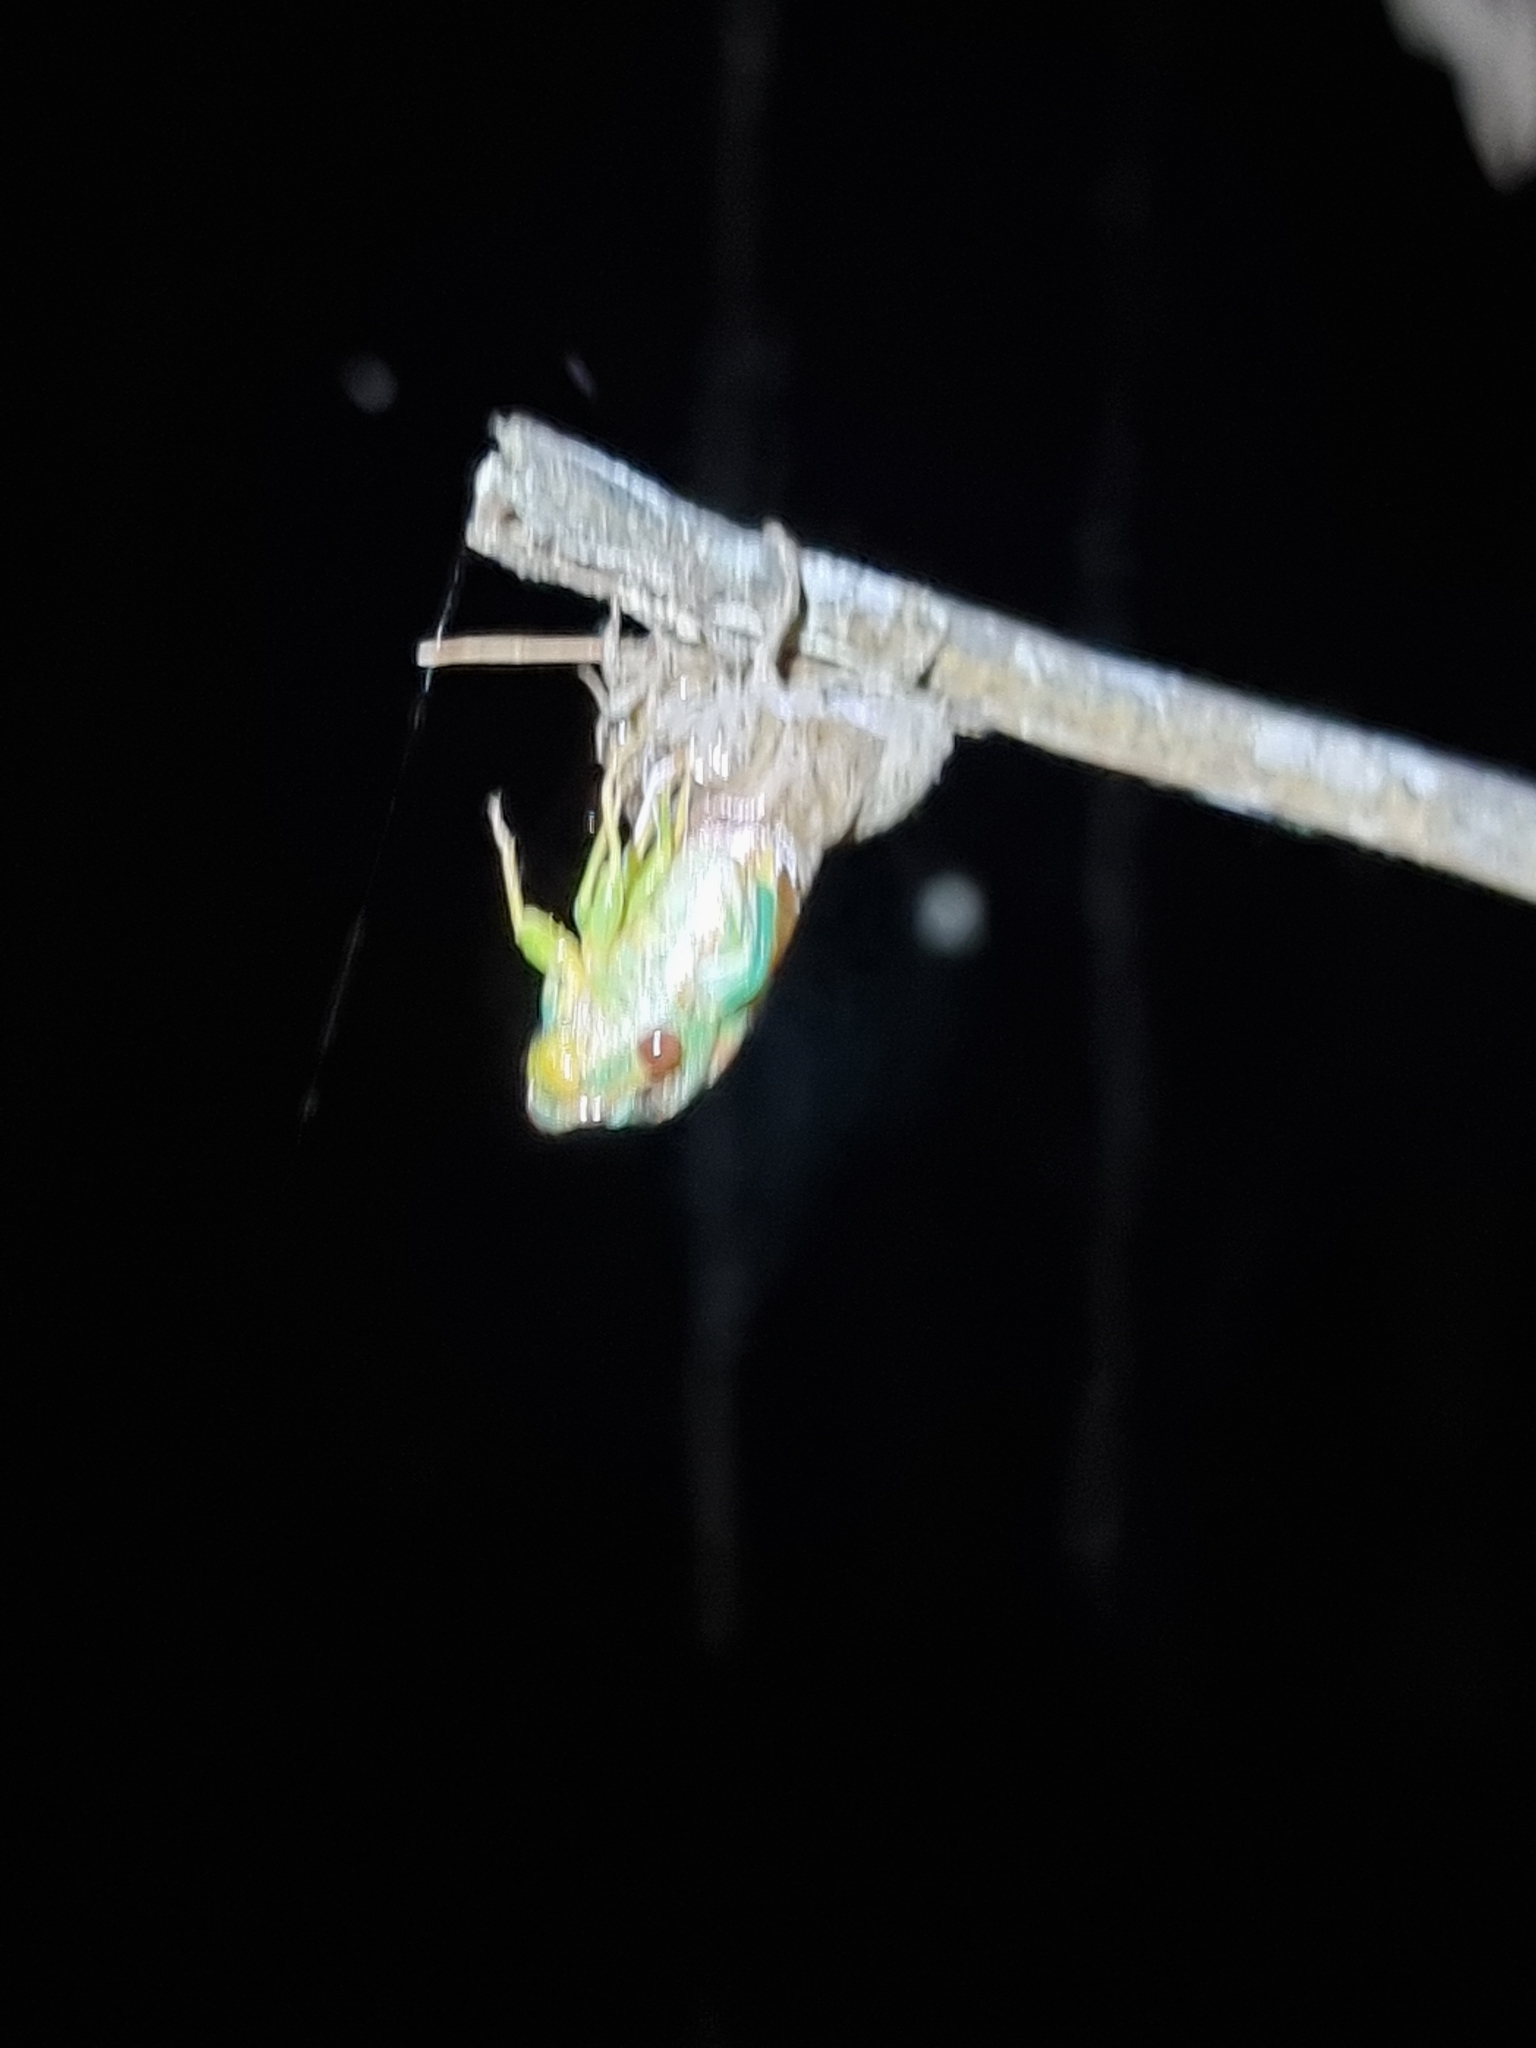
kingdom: Animalia
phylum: Arthropoda
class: Insecta
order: Hemiptera
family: Cicadidae
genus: Psaltoda
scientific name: Psaltoda claripennis
